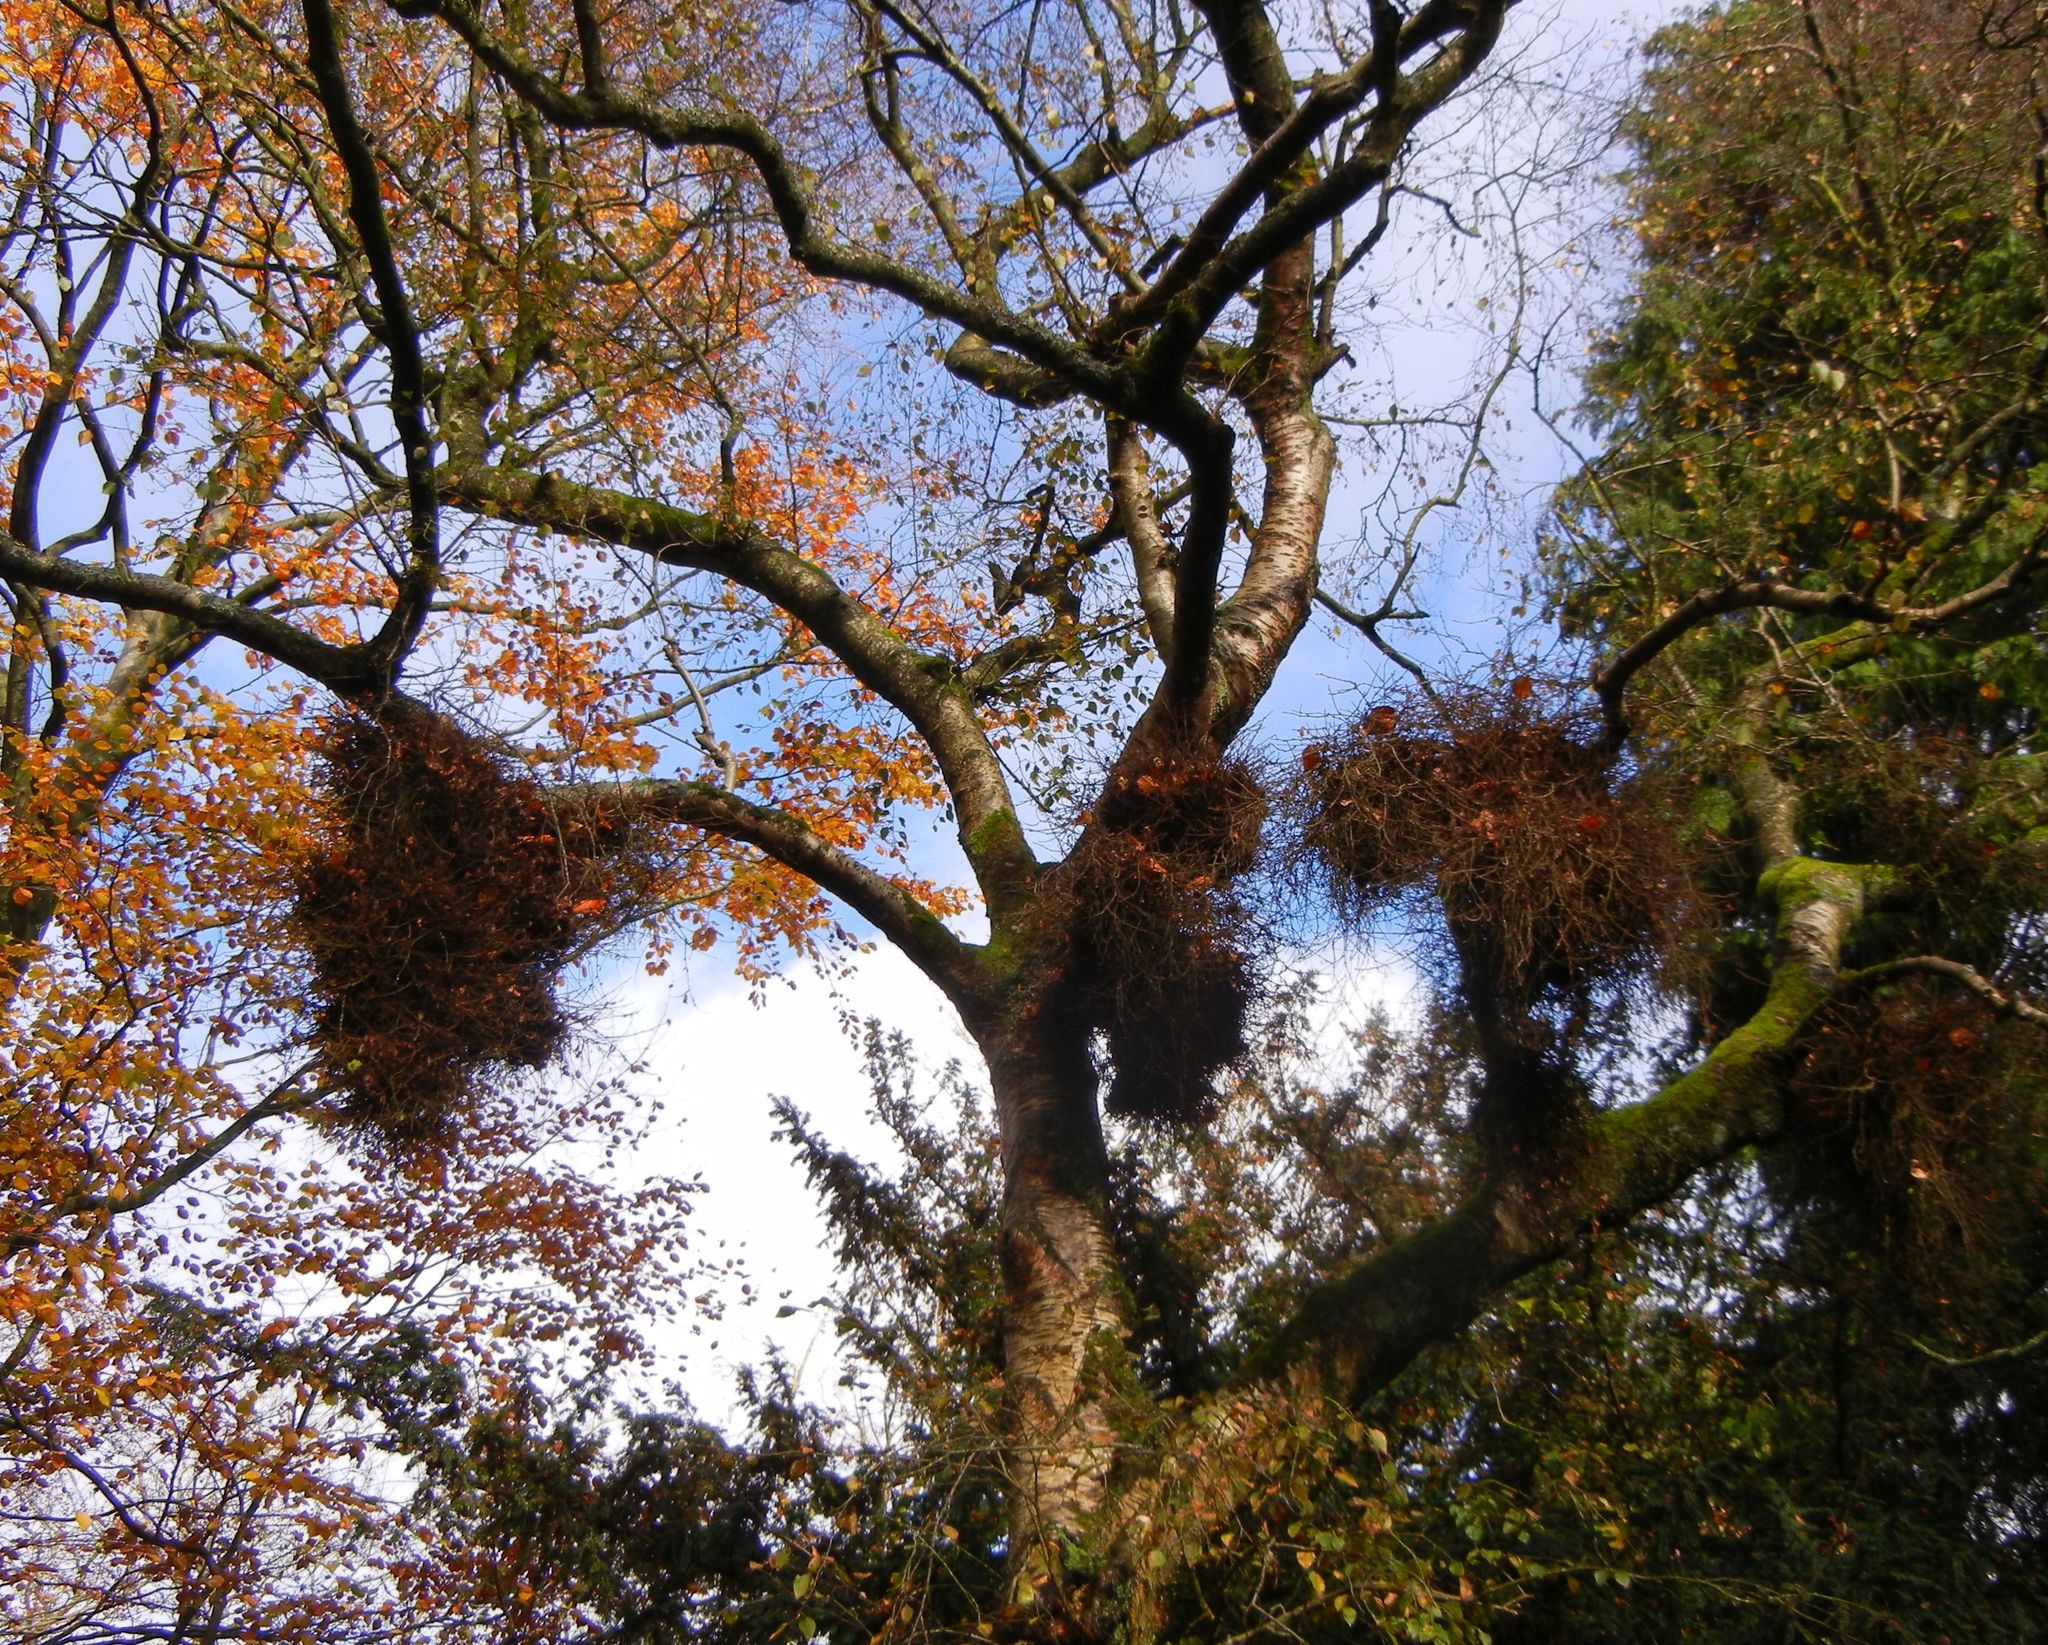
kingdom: Fungi
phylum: Ascomycota
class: Taphrinomycetes
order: Taphrinales
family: Taphrinaceae
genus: Taphrina
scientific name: Taphrina betulina
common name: Birch besom
